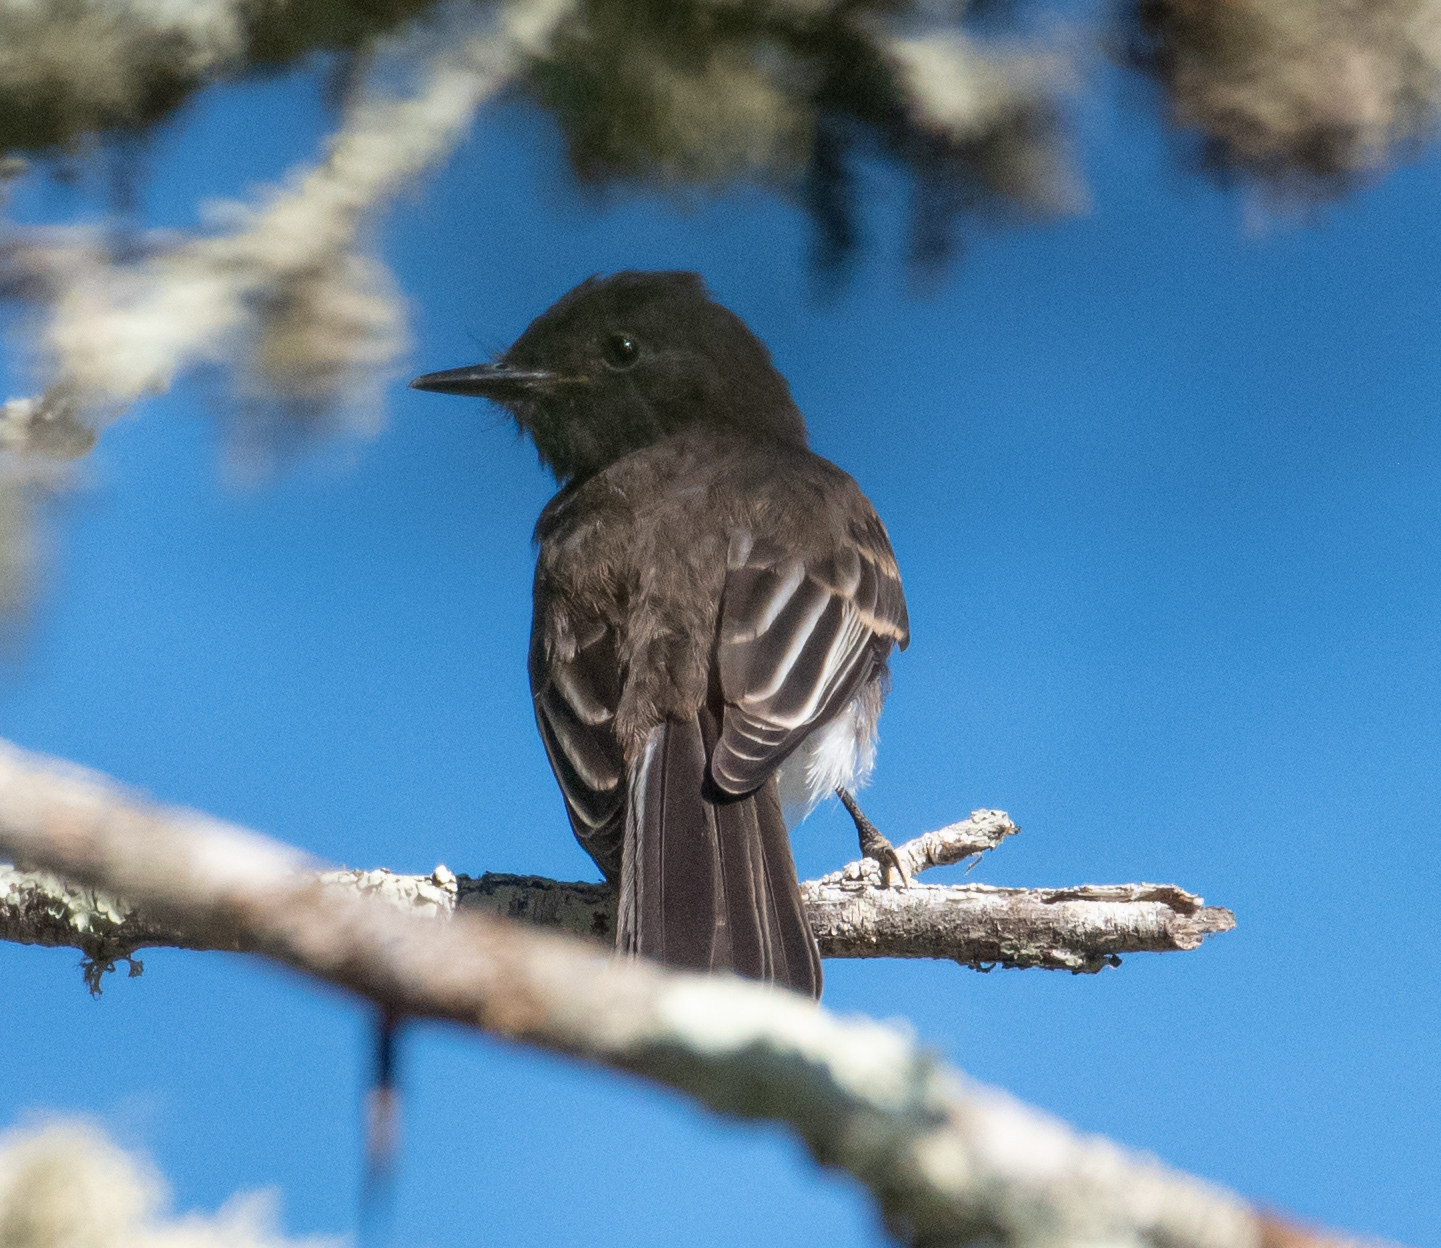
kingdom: Animalia
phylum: Chordata
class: Aves
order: Passeriformes
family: Tyrannidae
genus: Sayornis
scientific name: Sayornis nigricans
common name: Black phoebe
